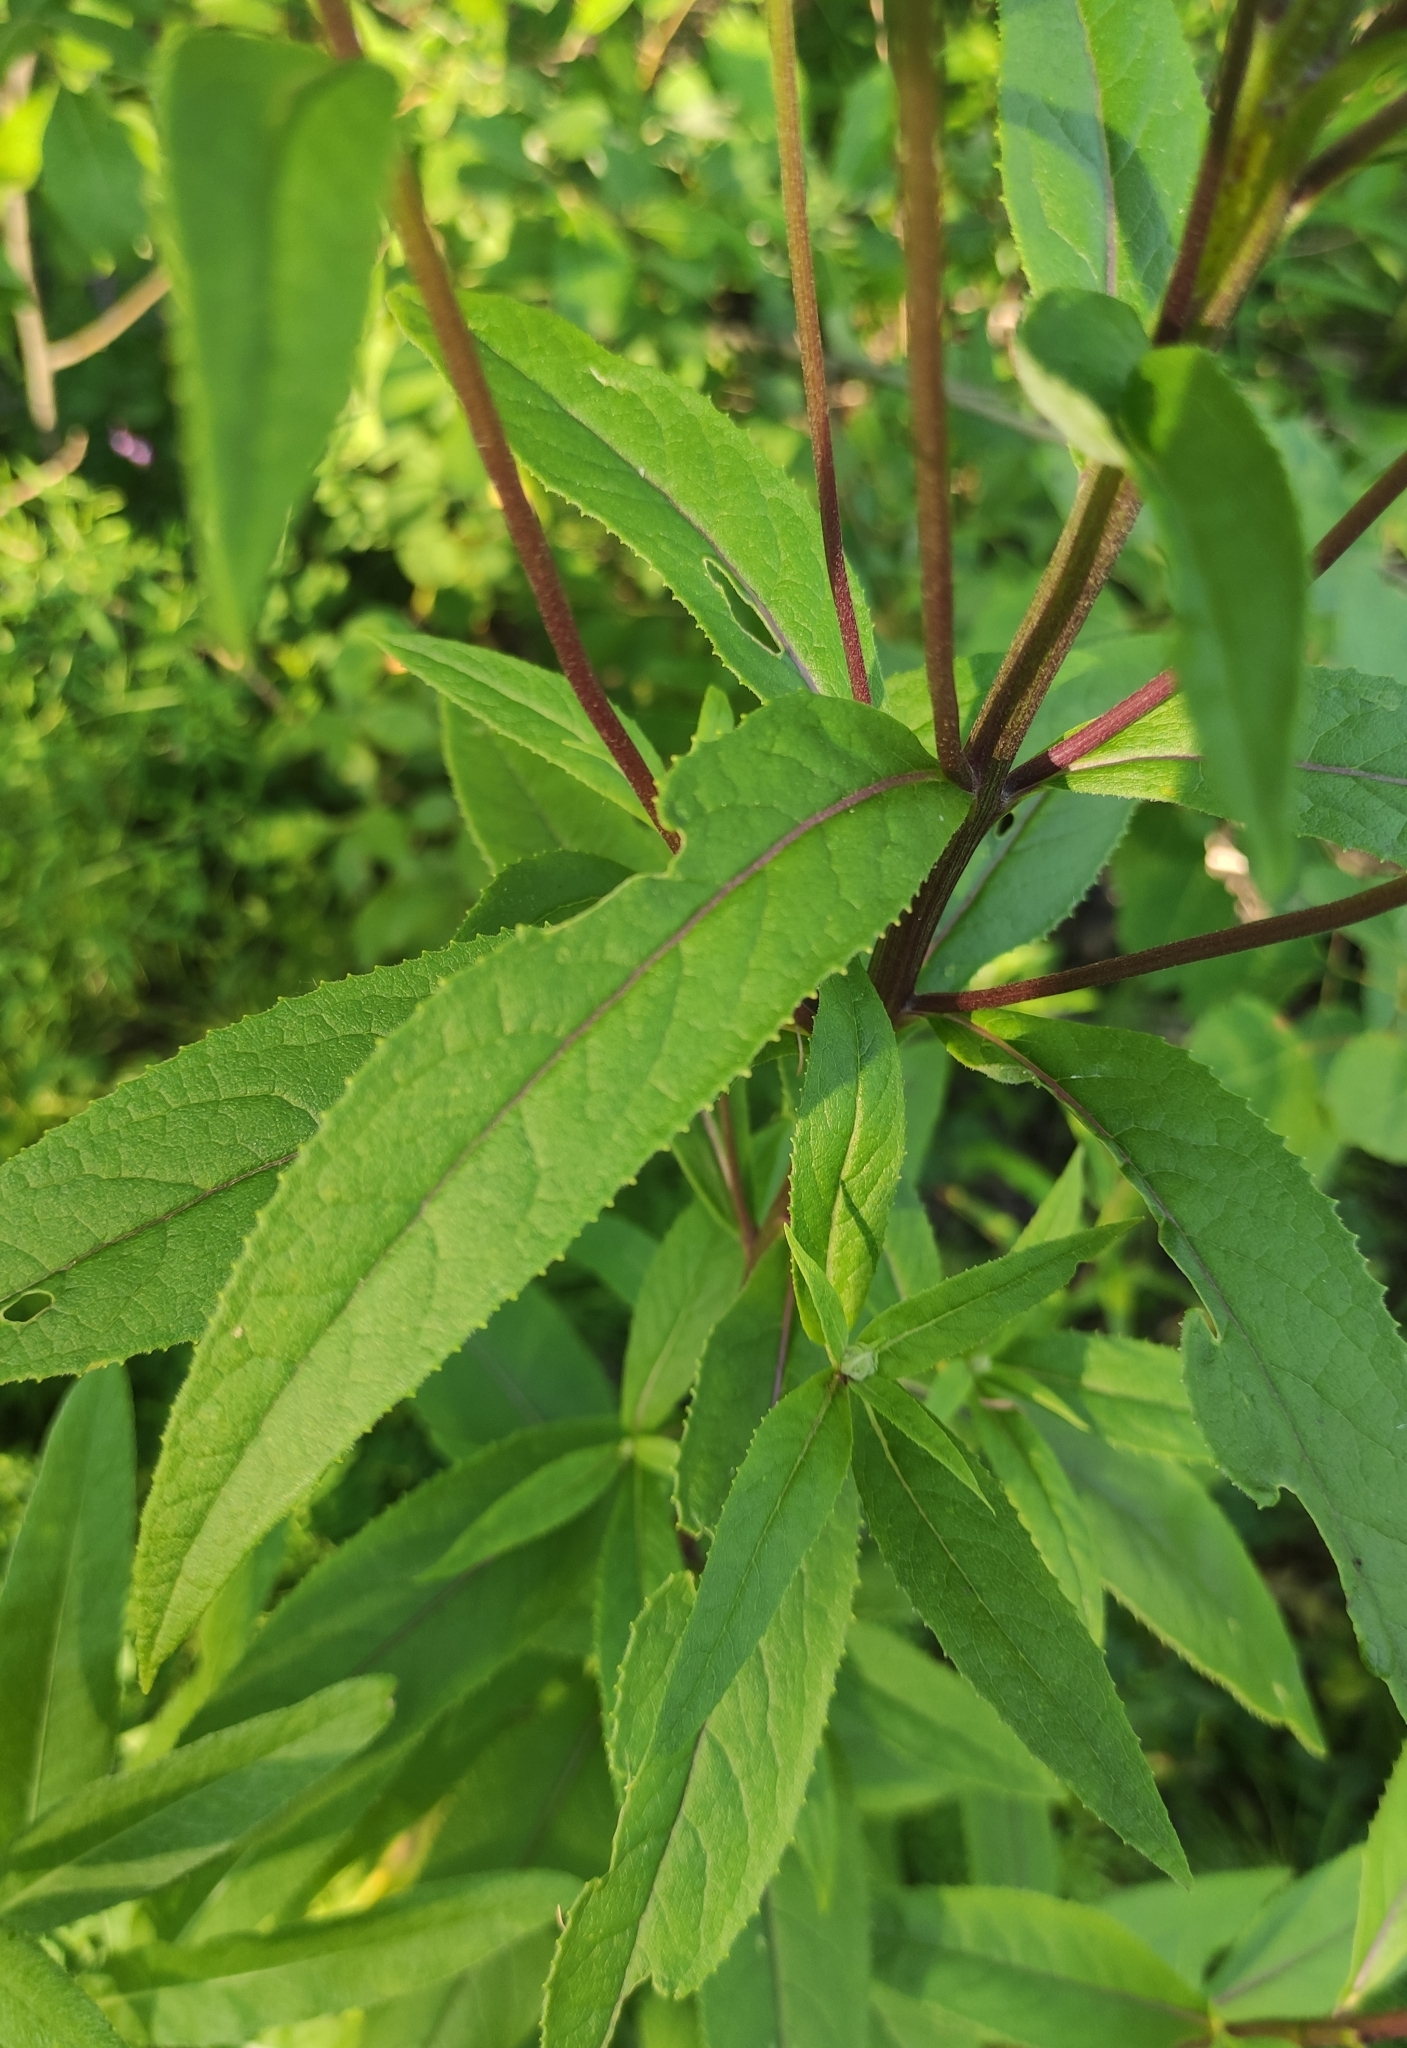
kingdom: Plantae
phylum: Tracheophyta
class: Magnoliopsida
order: Asterales
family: Asteraceae
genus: Senecio
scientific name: Senecio nemorensis
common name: Alpine ragwort
